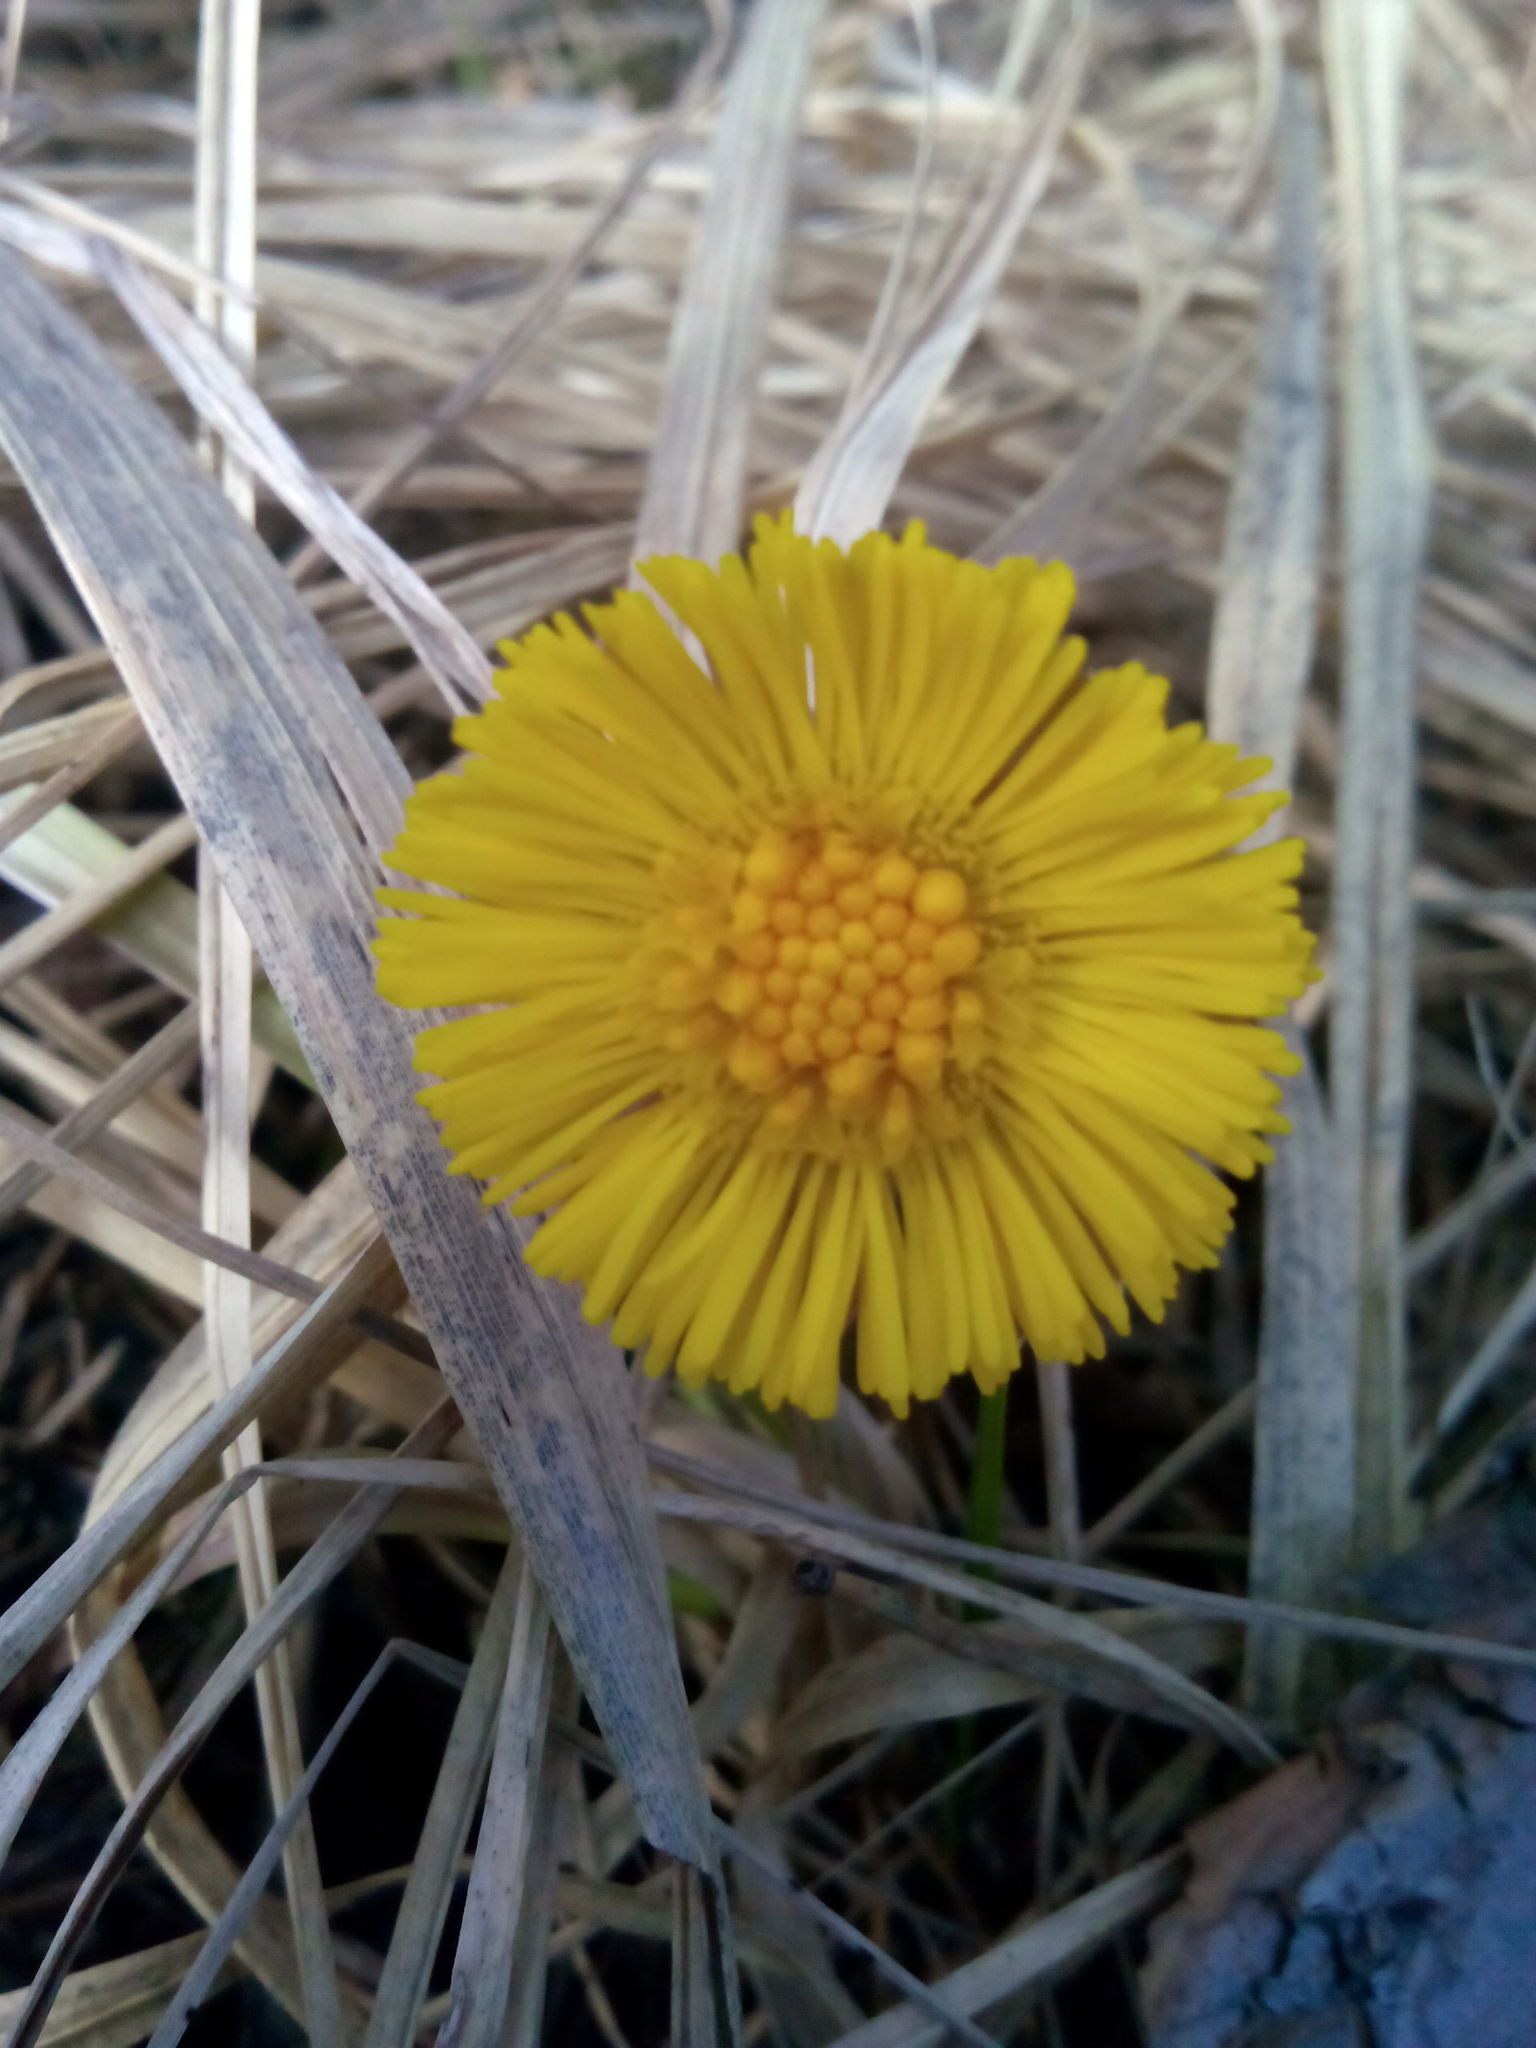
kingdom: Plantae
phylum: Tracheophyta
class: Magnoliopsida
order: Asterales
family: Asteraceae
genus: Tussilago
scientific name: Tussilago farfara
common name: Coltsfoot
